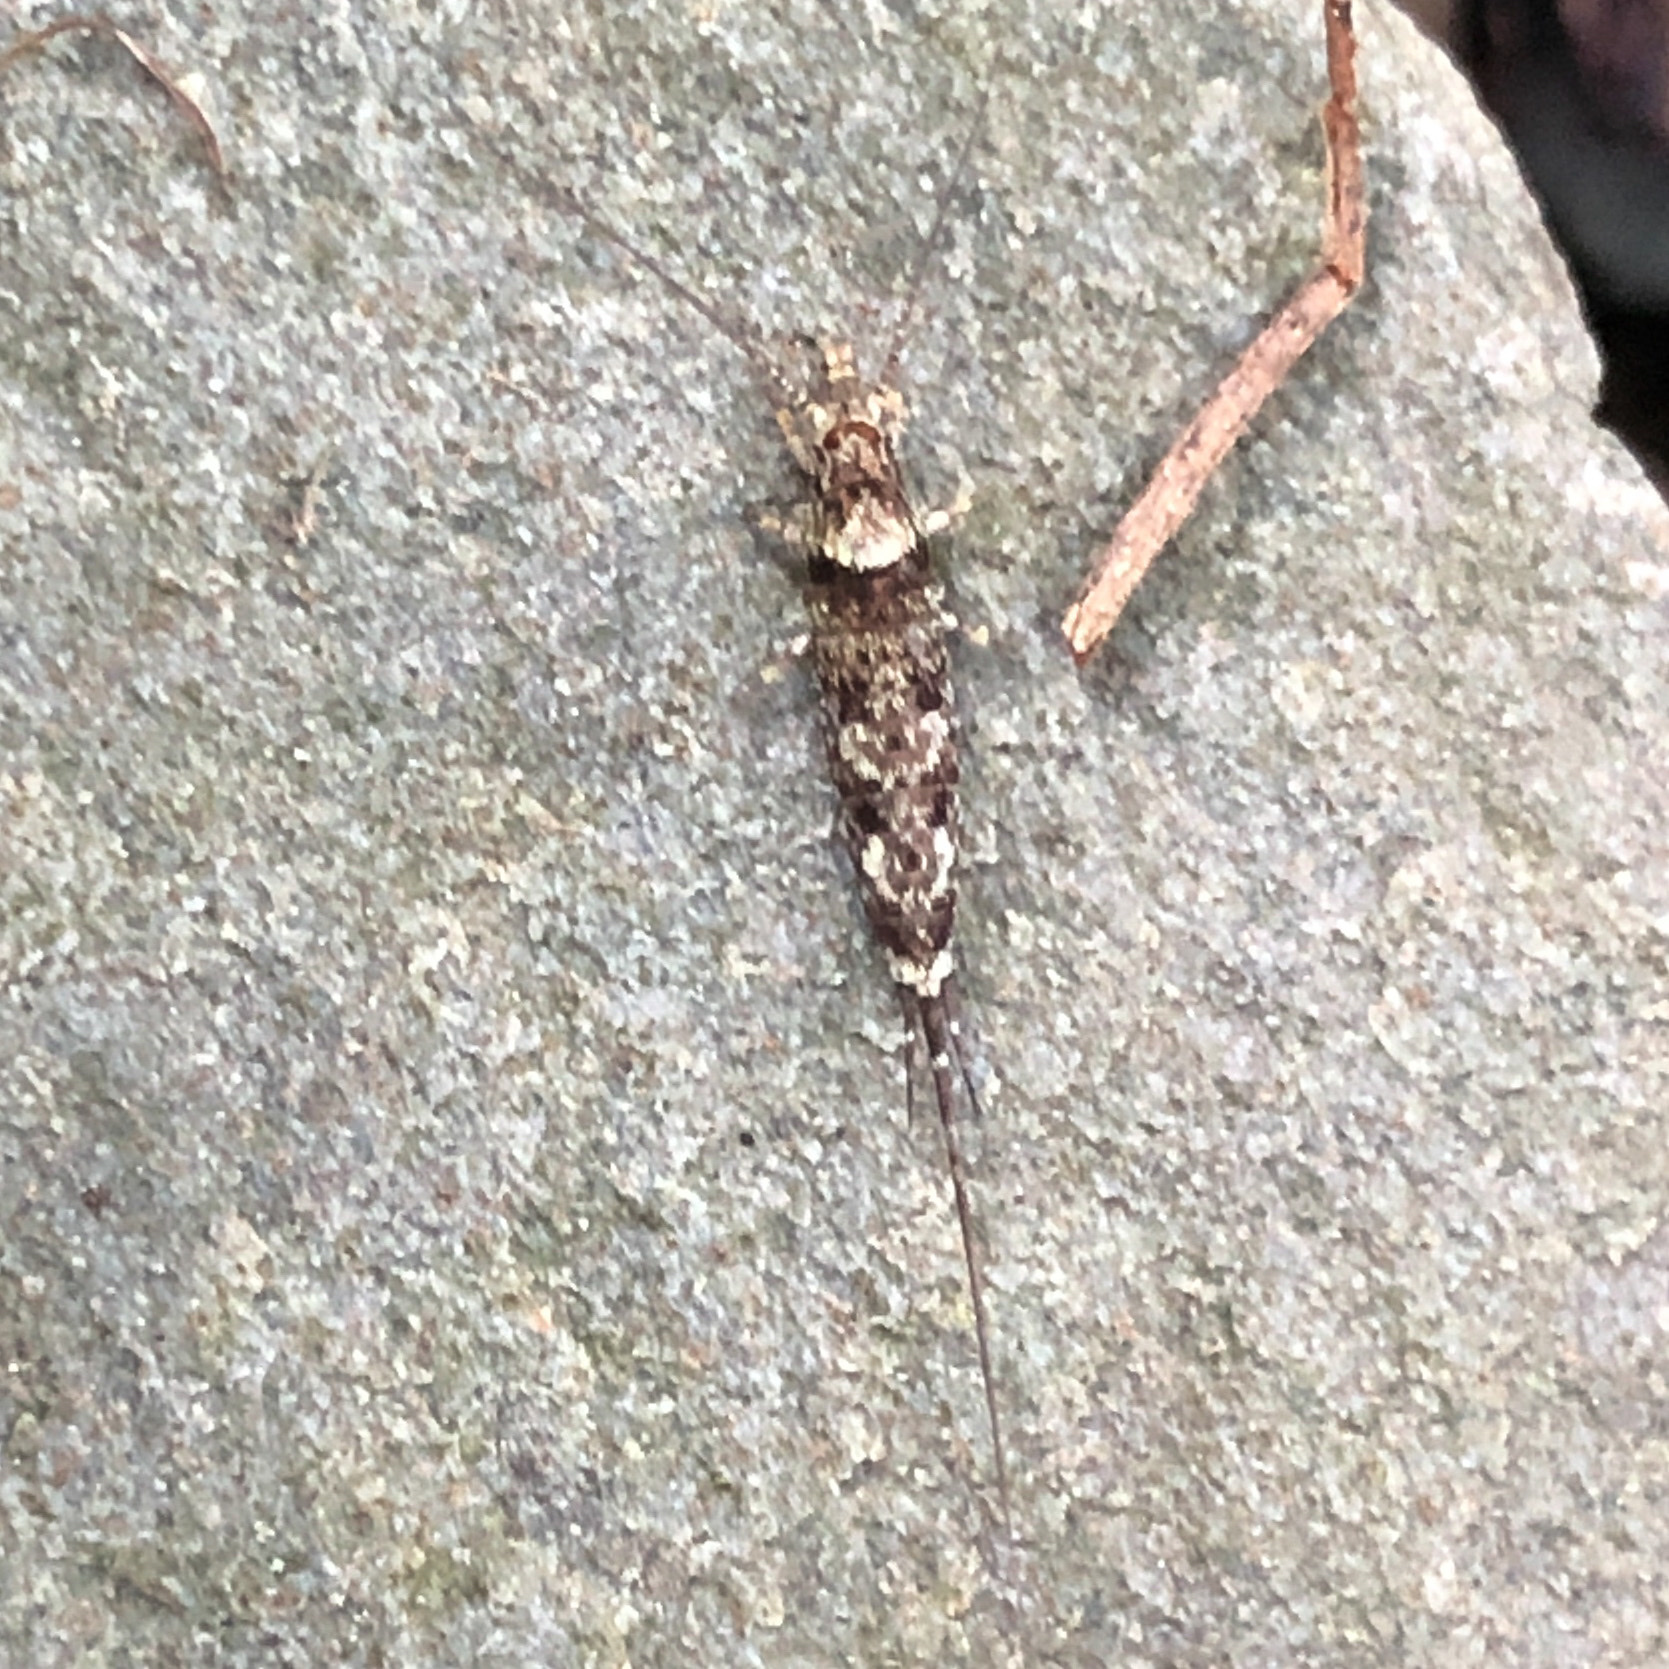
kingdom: Animalia
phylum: Arthropoda
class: Insecta
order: Archaeognatha
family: Machilidae
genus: Trigoniophthalmus
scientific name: Trigoniophthalmus alternatus
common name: Jumping bristletail
